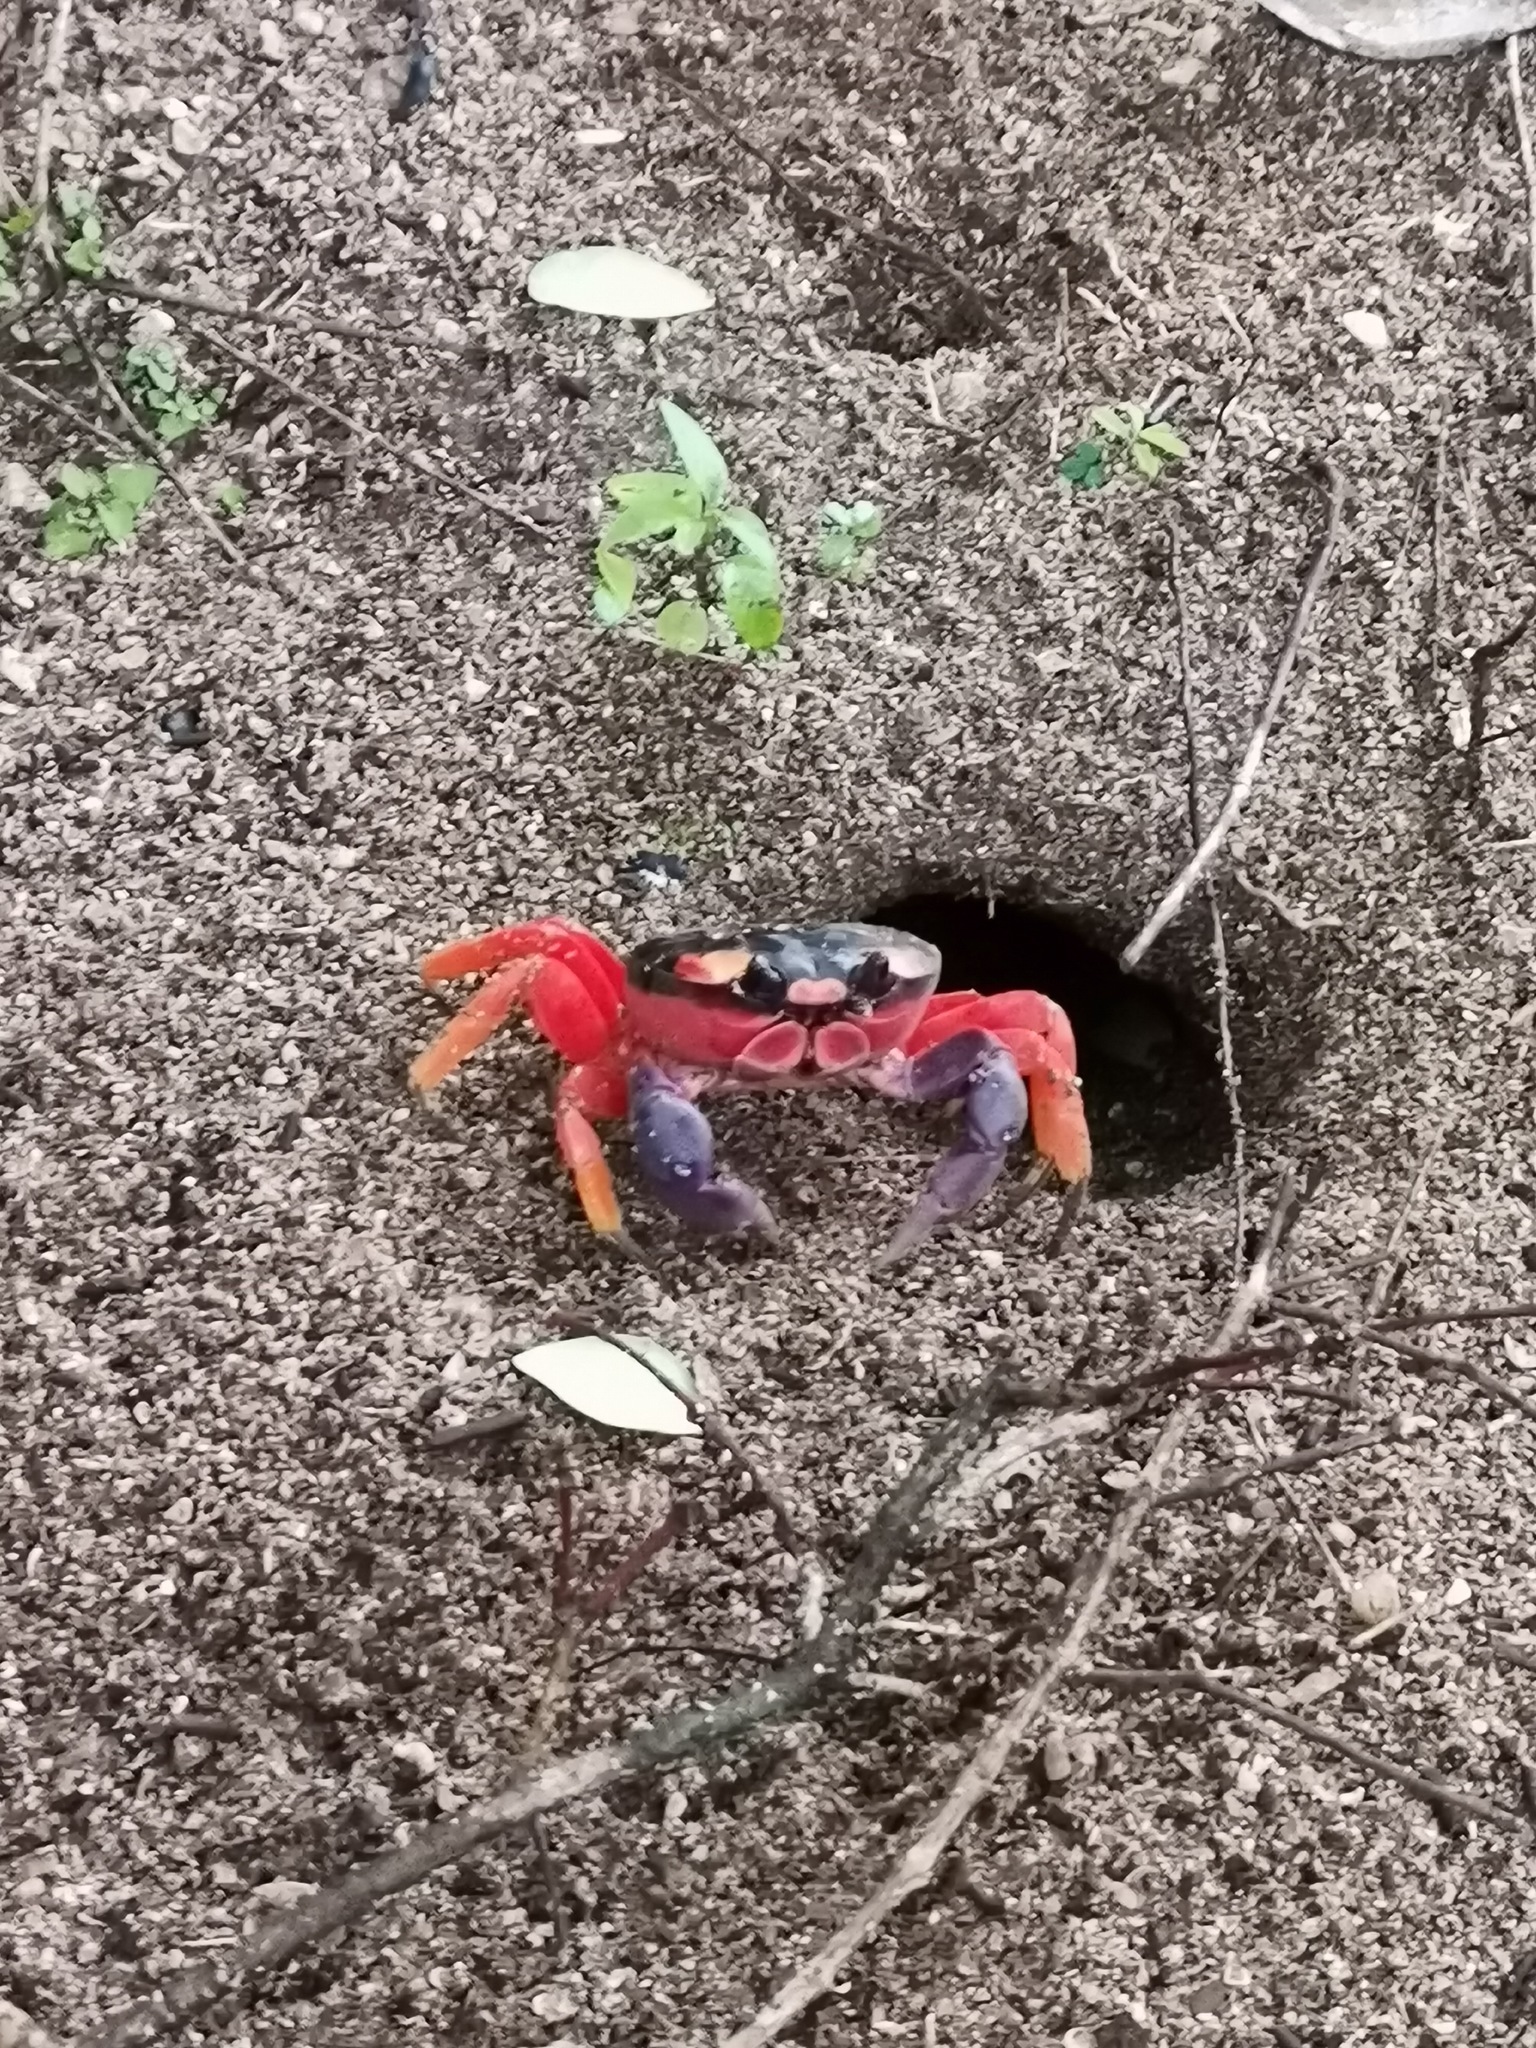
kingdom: Animalia
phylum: Arthropoda
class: Malacostraca
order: Decapoda
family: Gecarcinidae
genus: Gecarcinus
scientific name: Gecarcinus quadratus
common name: Halloween crab
